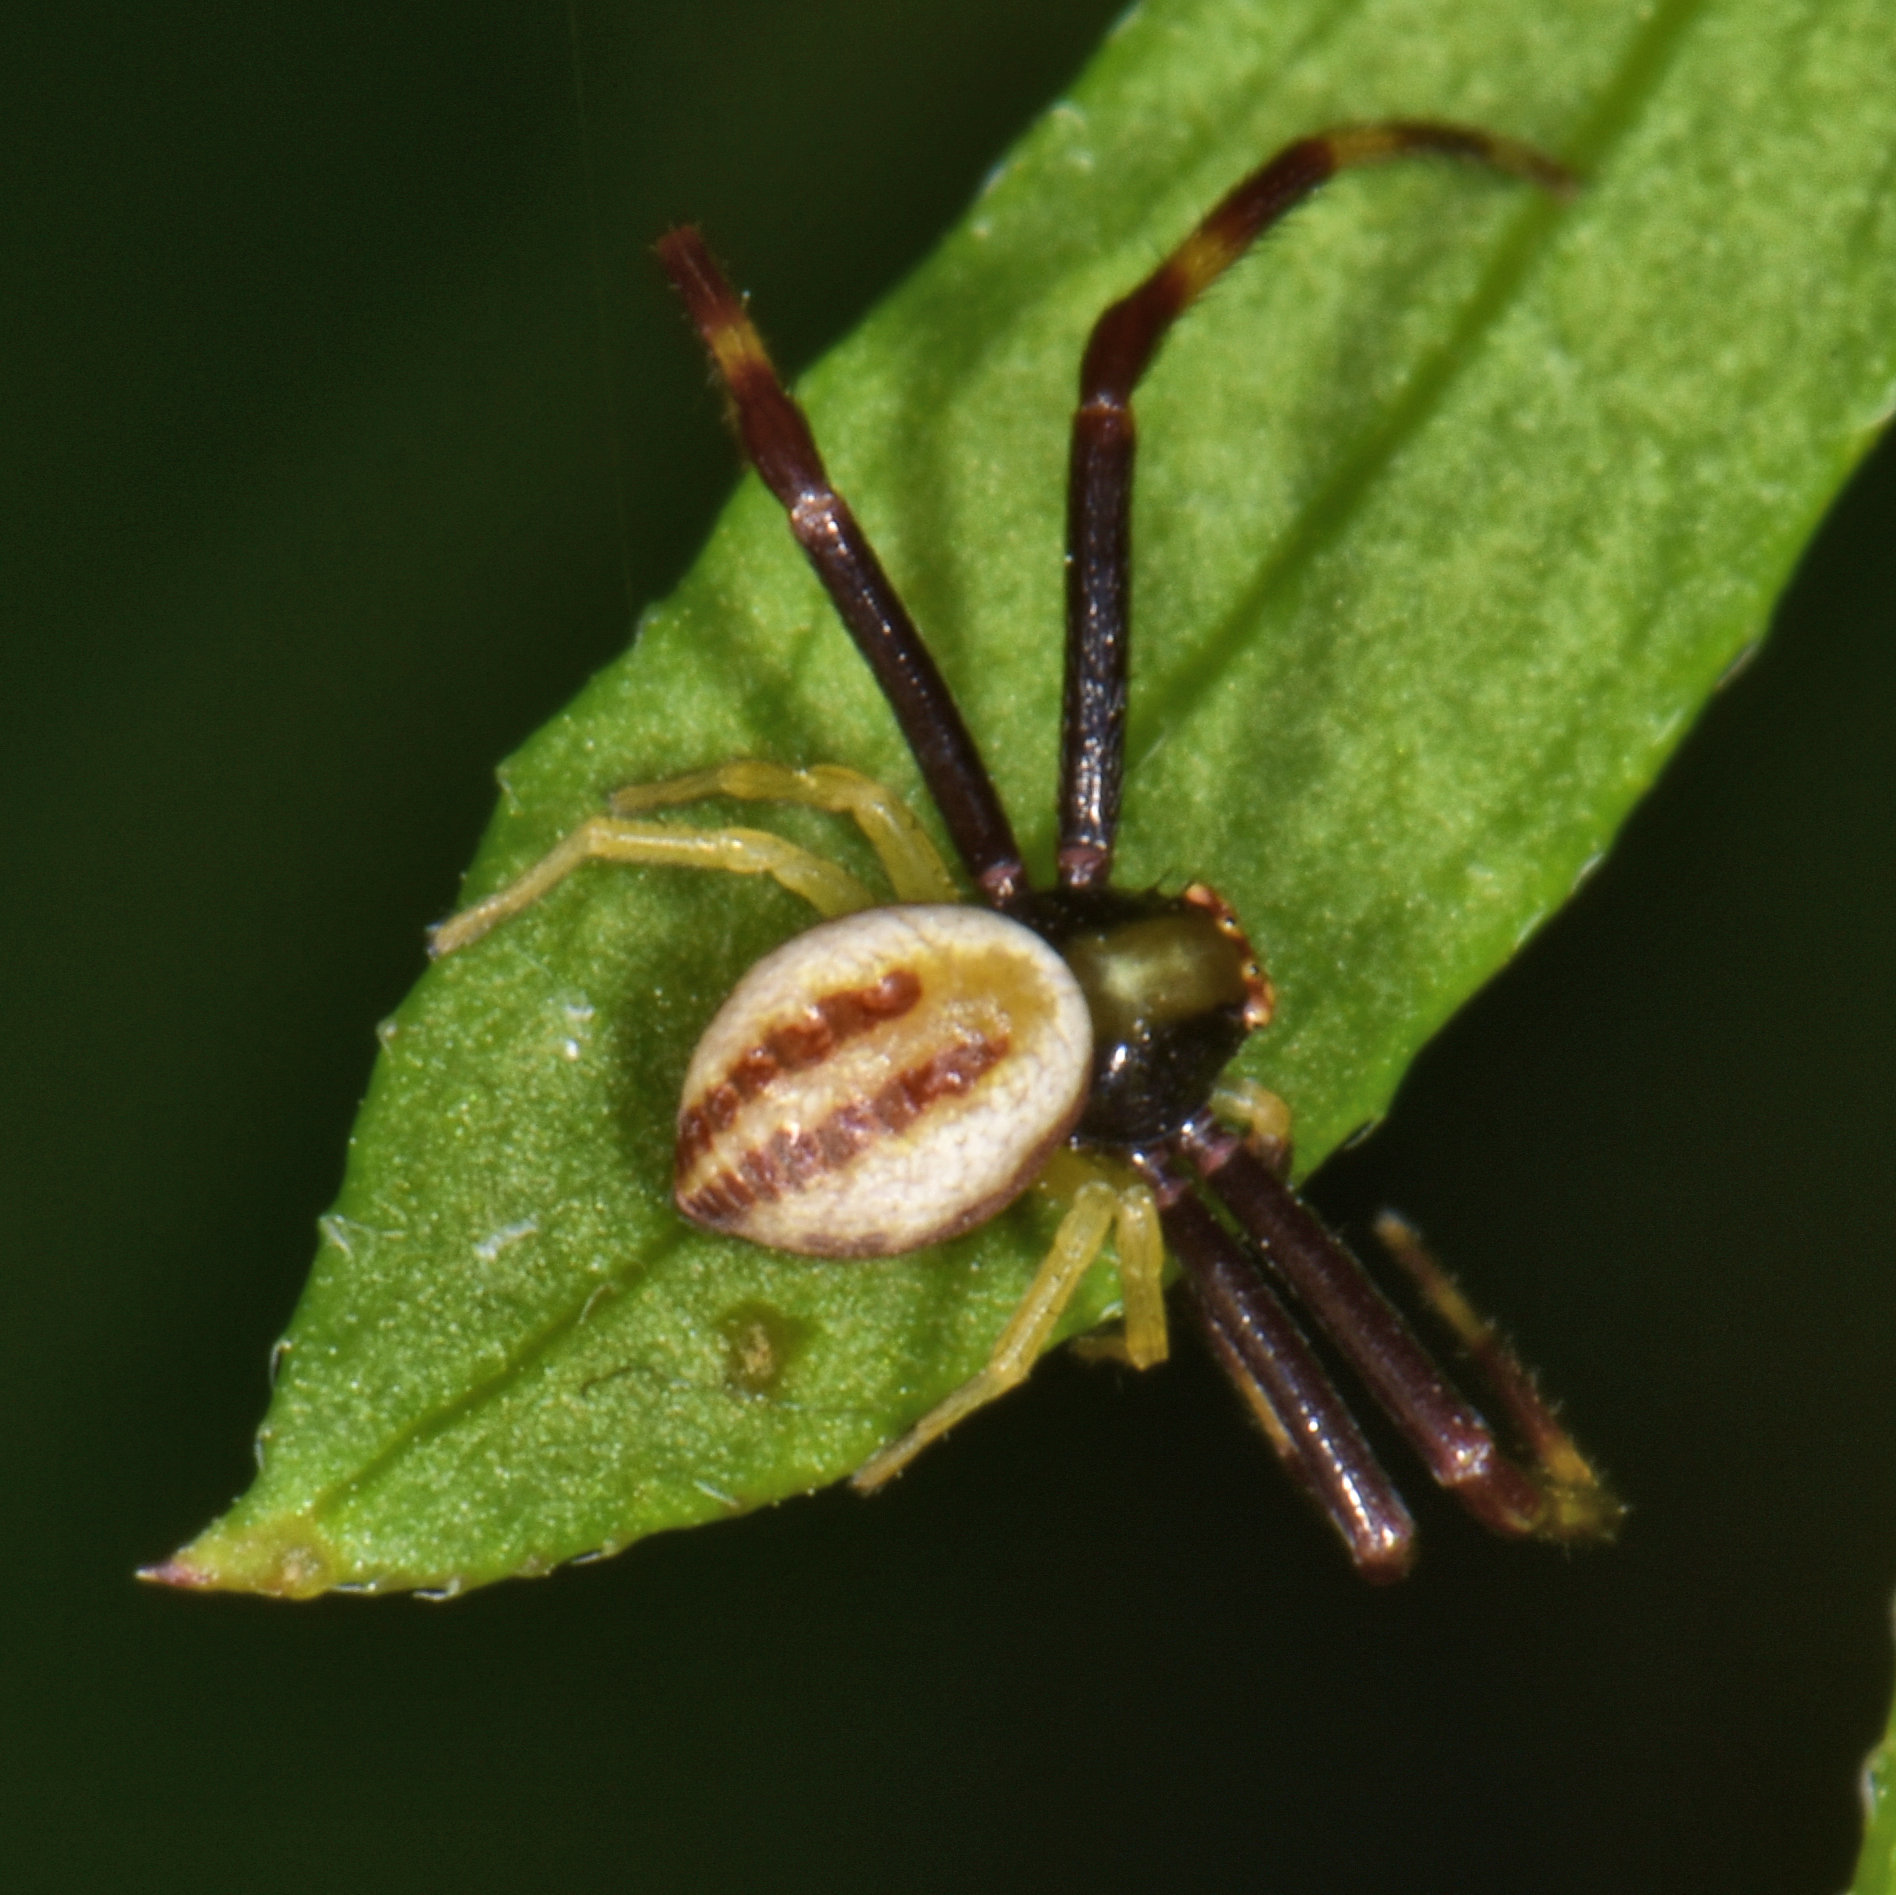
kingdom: Animalia
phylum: Arthropoda
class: Arachnida
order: Araneae
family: Thomisidae
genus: Misumena
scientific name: Misumena vatia
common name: Goldenrod crab spider
